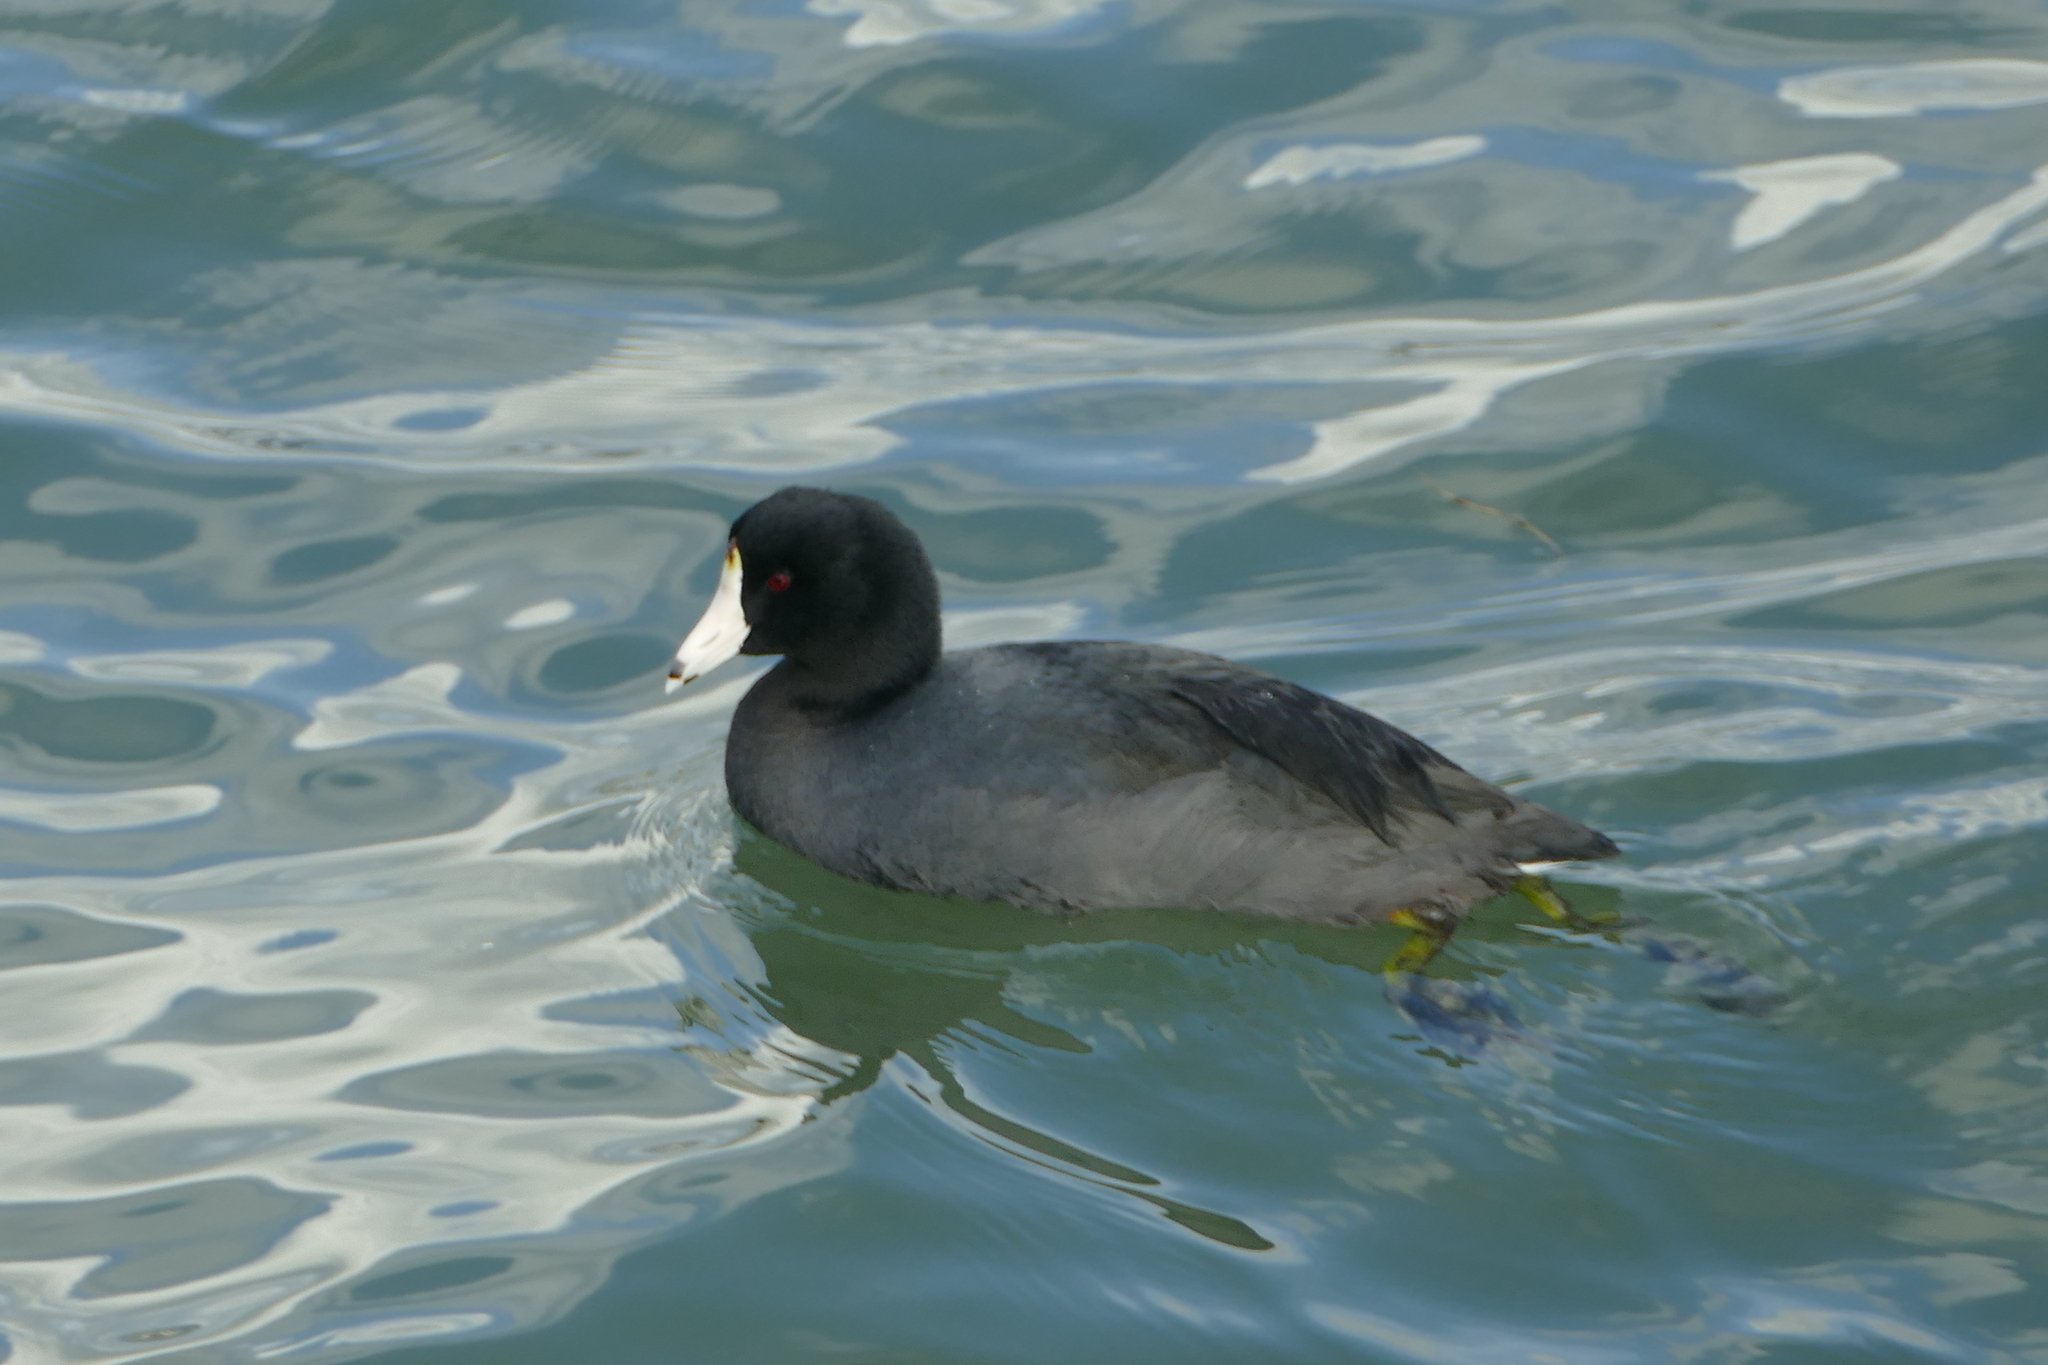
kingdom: Animalia
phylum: Chordata
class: Aves
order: Gruiformes
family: Rallidae
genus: Fulica
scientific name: Fulica americana
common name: American coot
